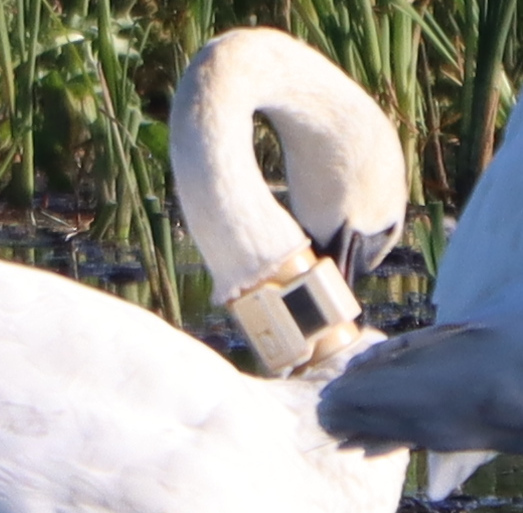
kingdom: Animalia
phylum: Chordata
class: Aves
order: Anseriformes
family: Anatidae
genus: Cygnus
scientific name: Cygnus buccinator
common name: Trumpeter swan
